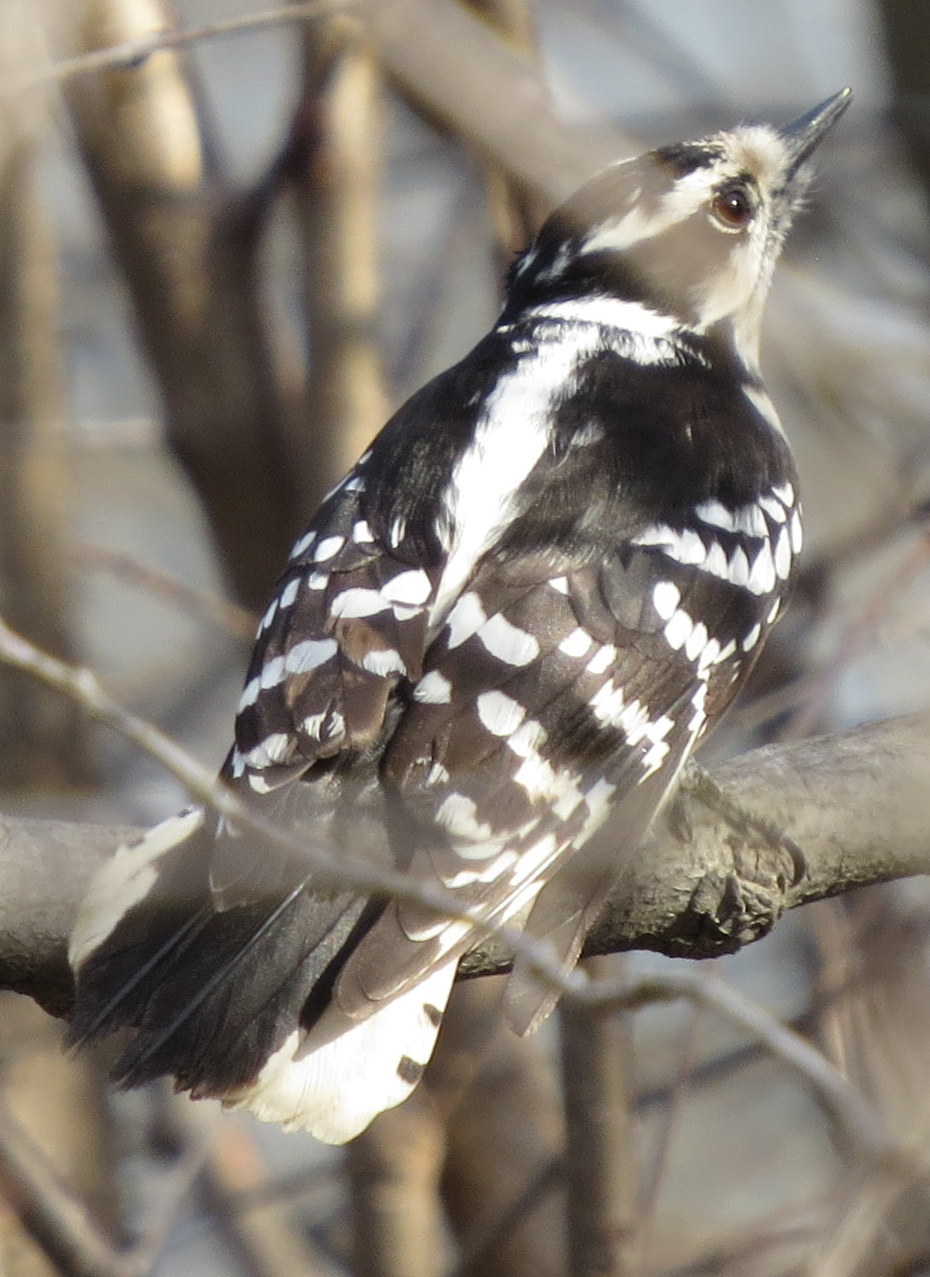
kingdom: Animalia
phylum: Chordata
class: Aves
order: Piciformes
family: Picidae
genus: Dryobates
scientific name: Dryobates pubescens
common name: Downy woodpecker
